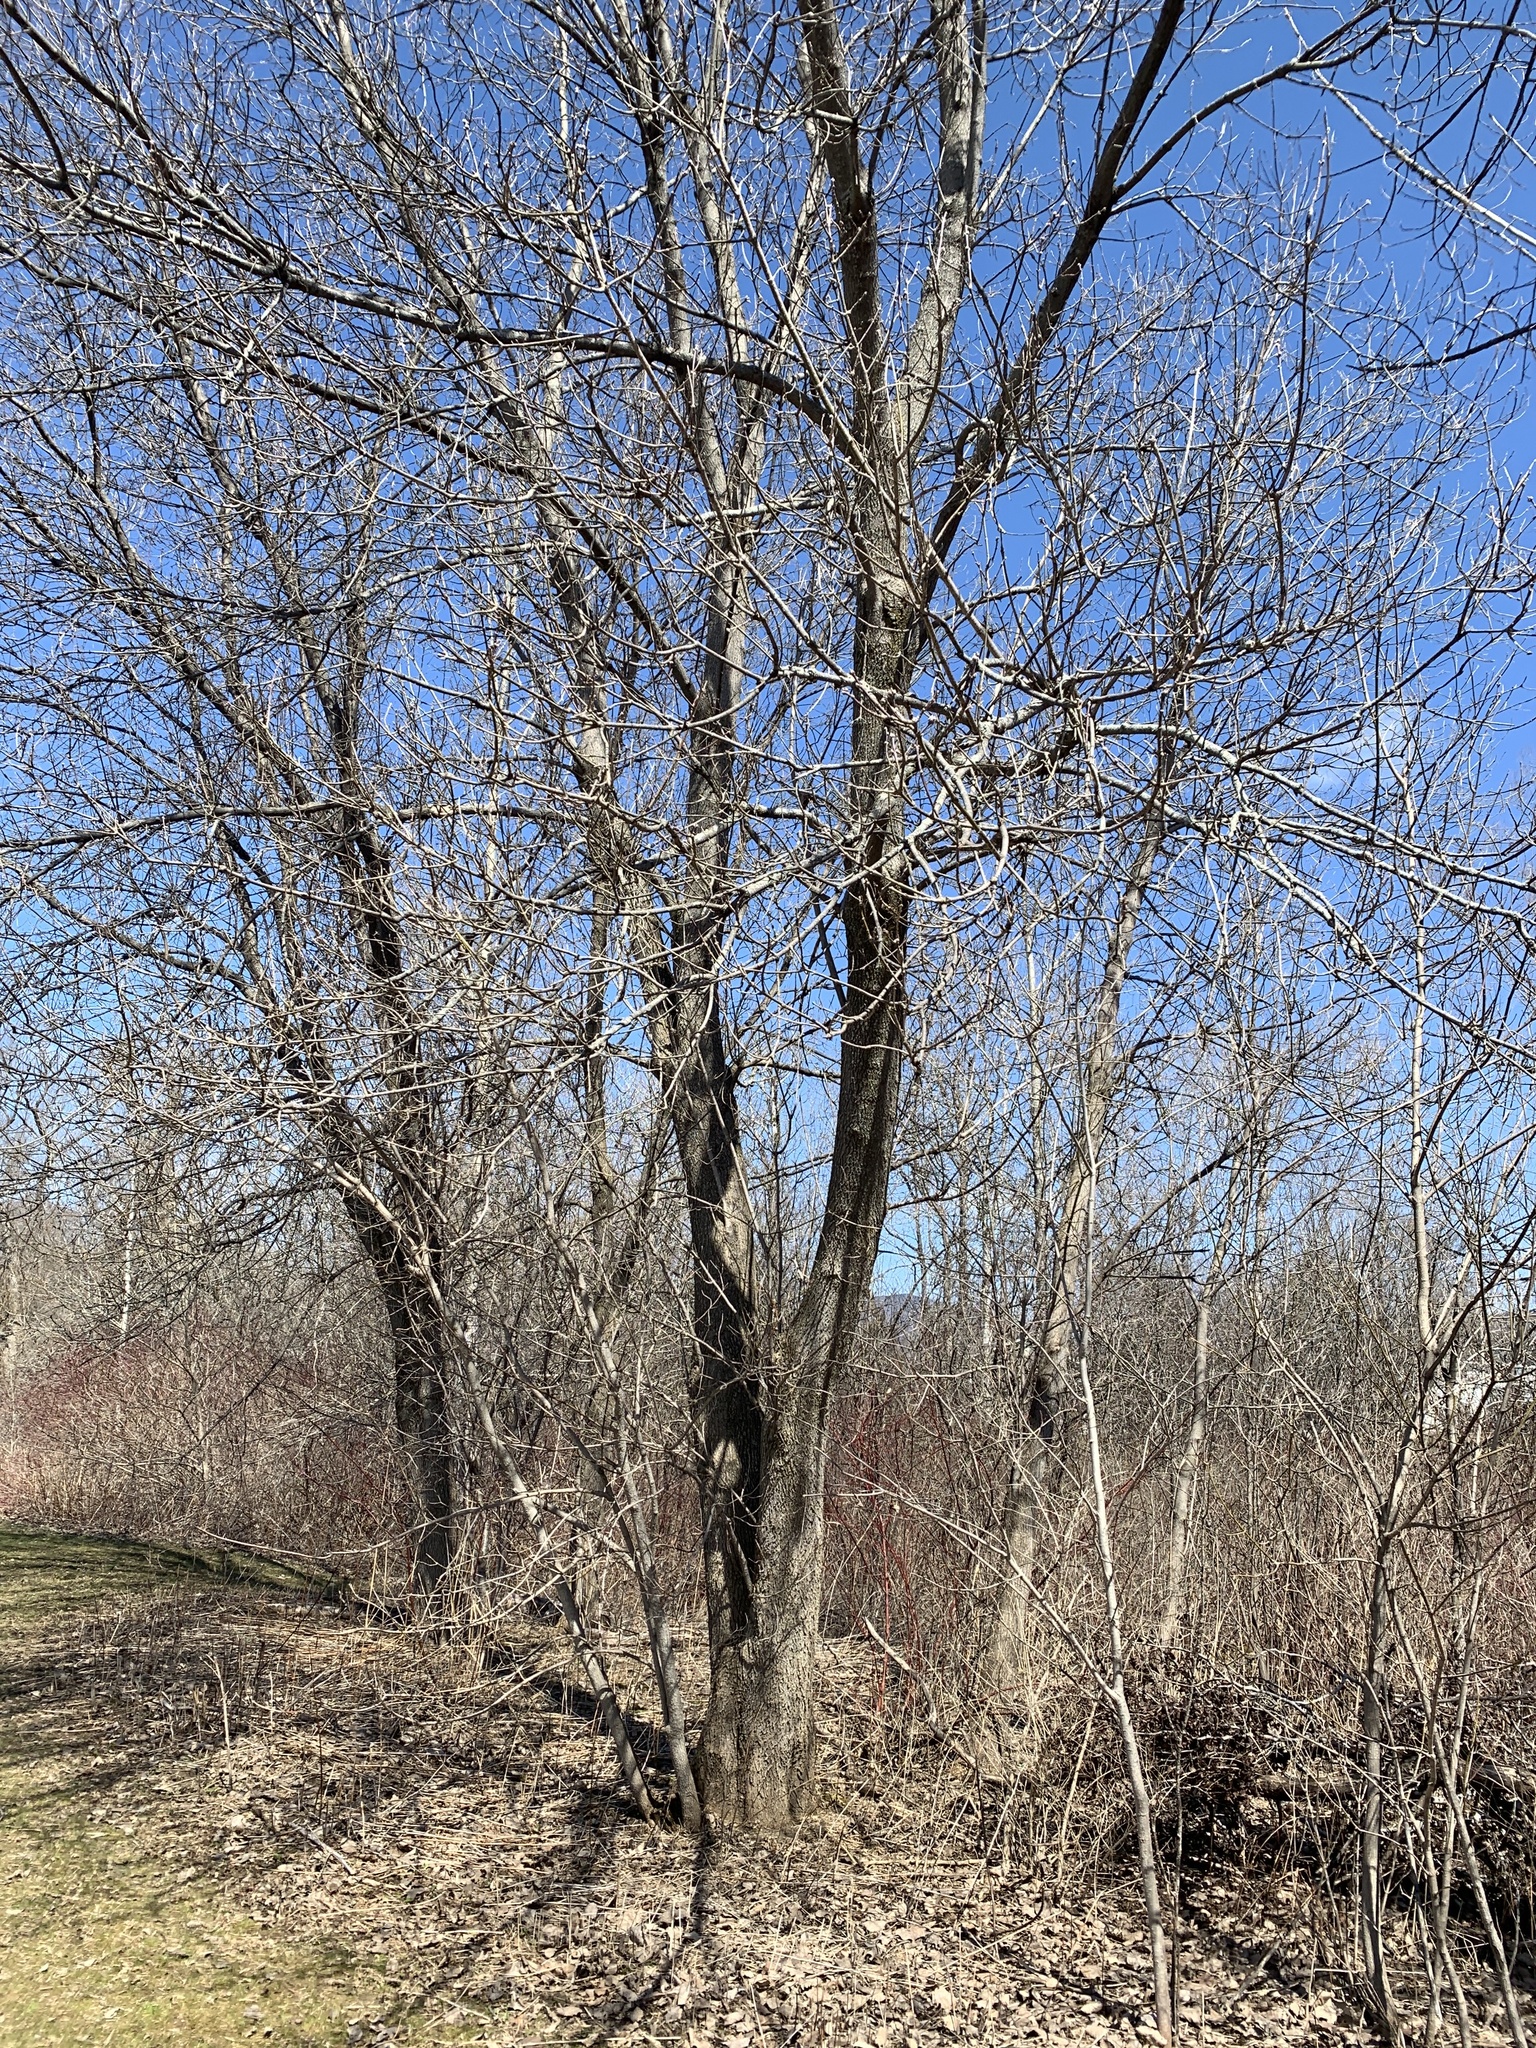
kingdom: Plantae
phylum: Tracheophyta
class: Magnoliopsida
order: Sapindales
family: Sapindaceae
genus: Acer
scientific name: Acer negundo
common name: Ashleaf maple
